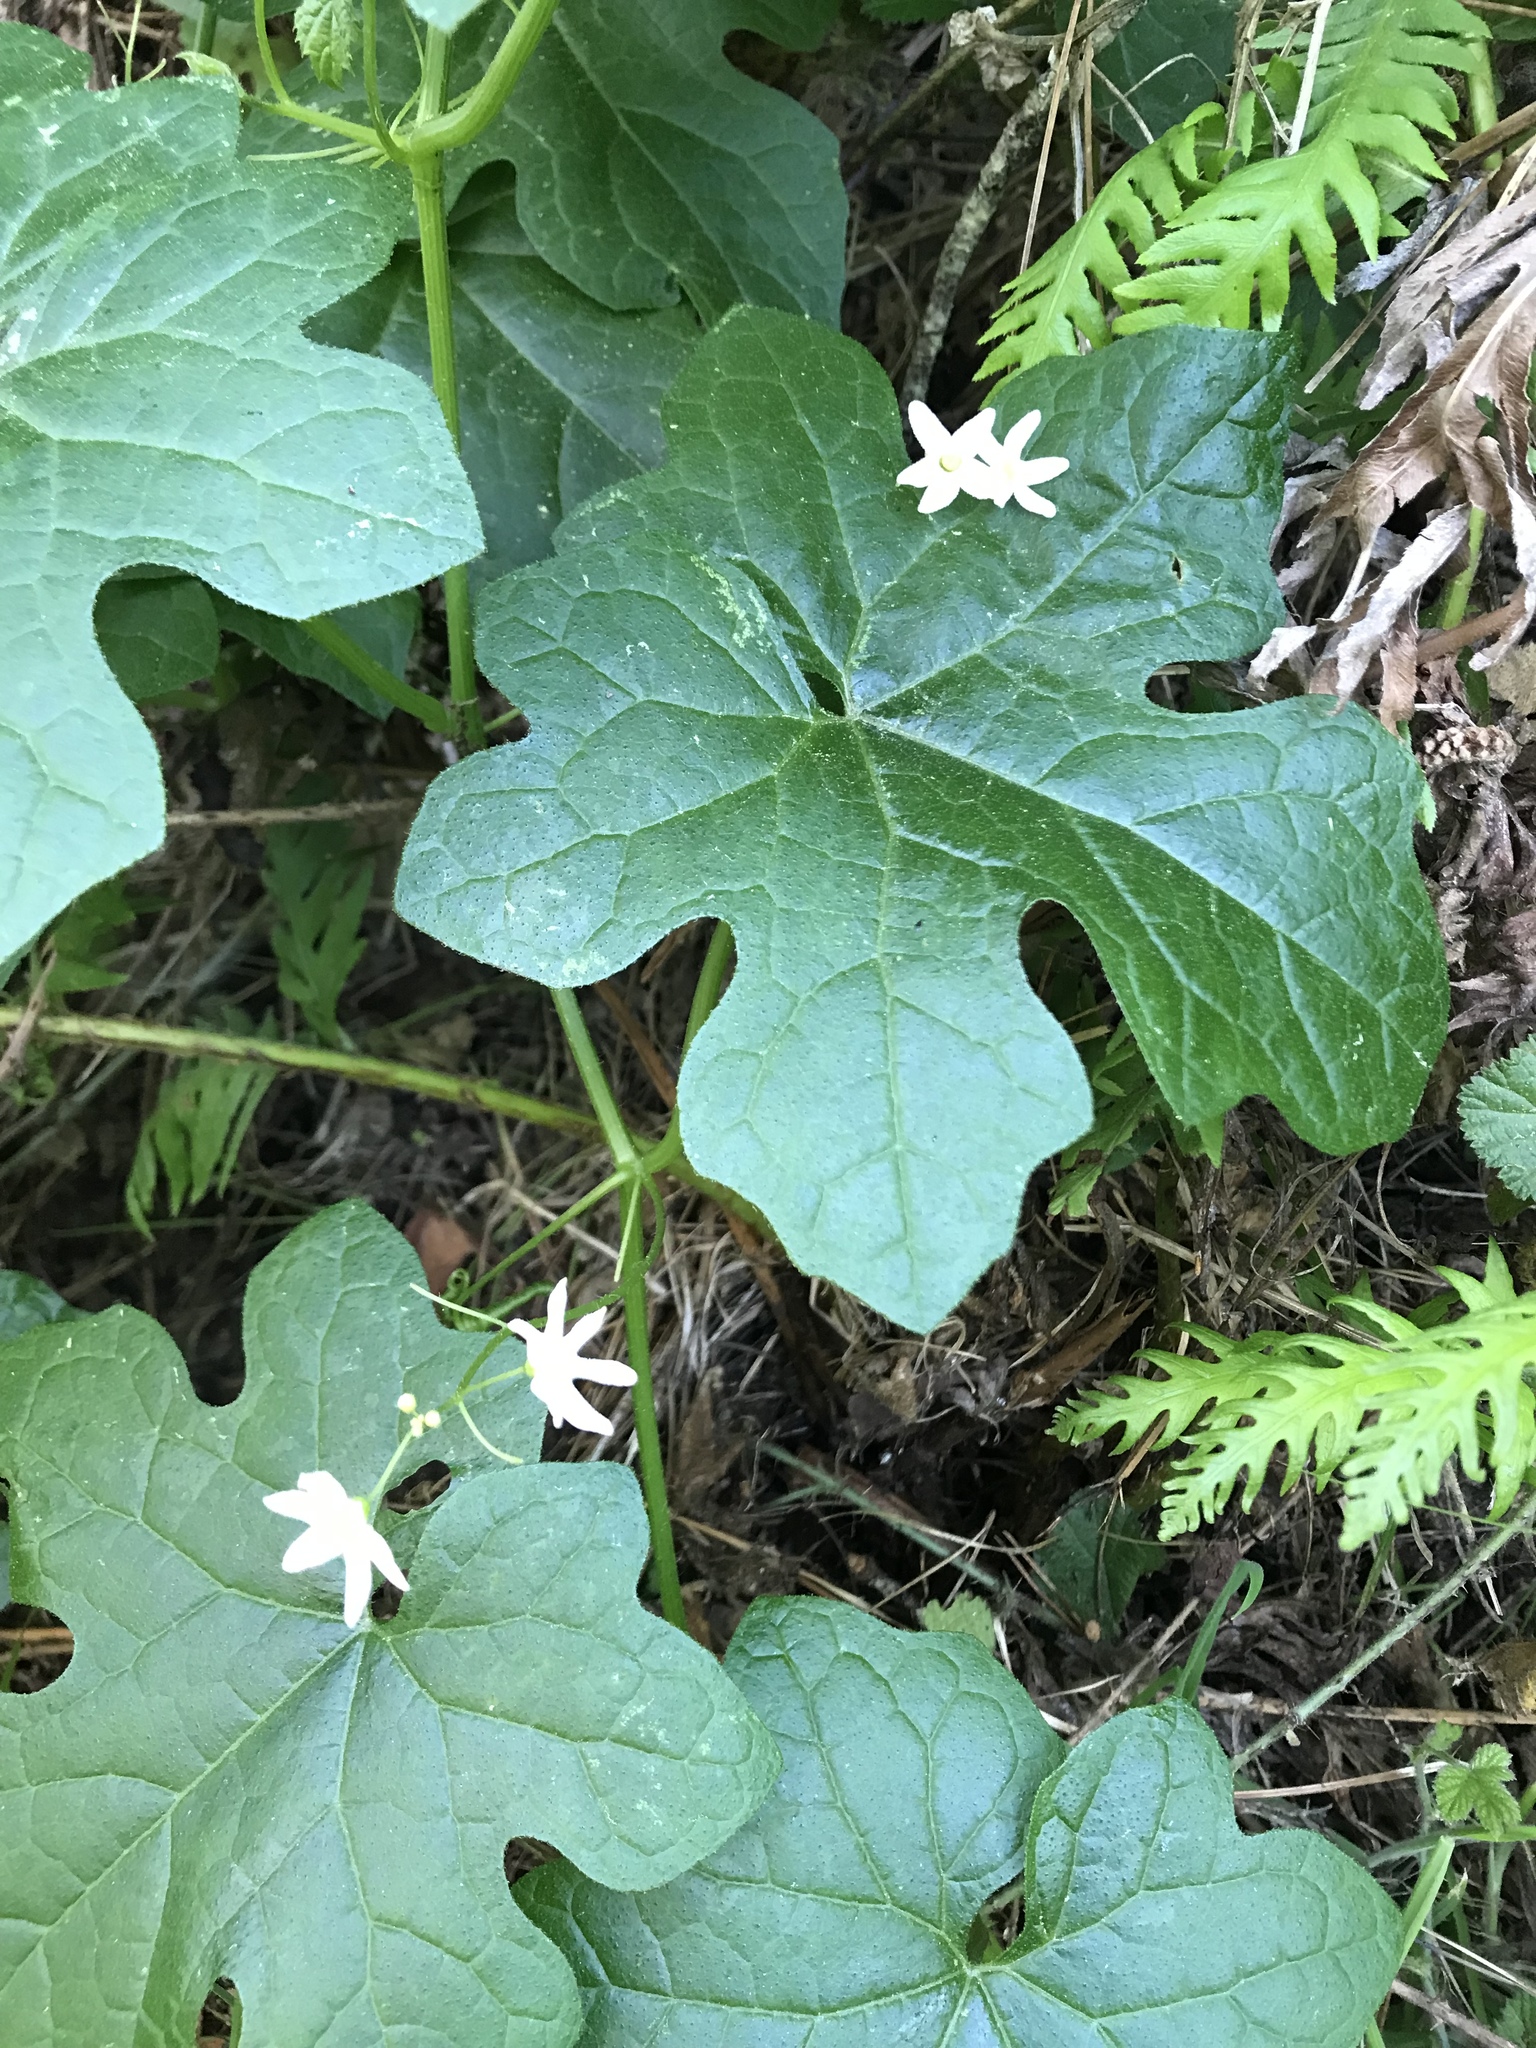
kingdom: Plantae
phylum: Tracheophyta
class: Magnoliopsida
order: Cucurbitales
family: Cucurbitaceae
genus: Marah
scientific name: Marah oregana
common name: Coastal manroot
